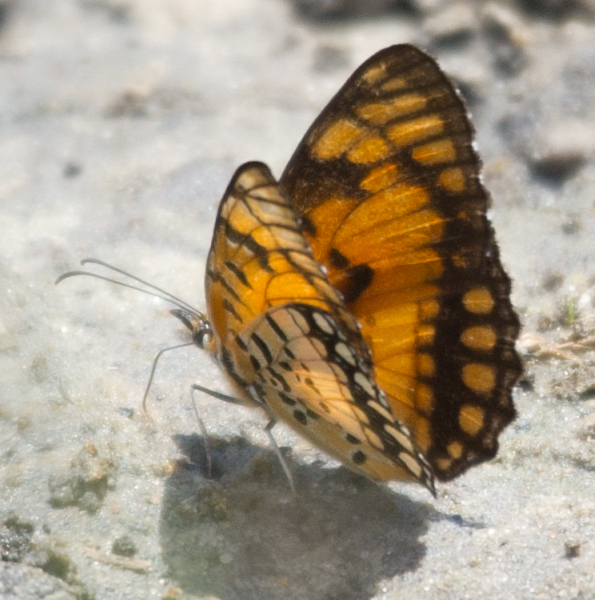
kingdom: Animalia
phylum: Arthropoda
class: Insecta
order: Lepidoptera
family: Nymphalidae
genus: Byblia
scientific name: Byblia acheloia
